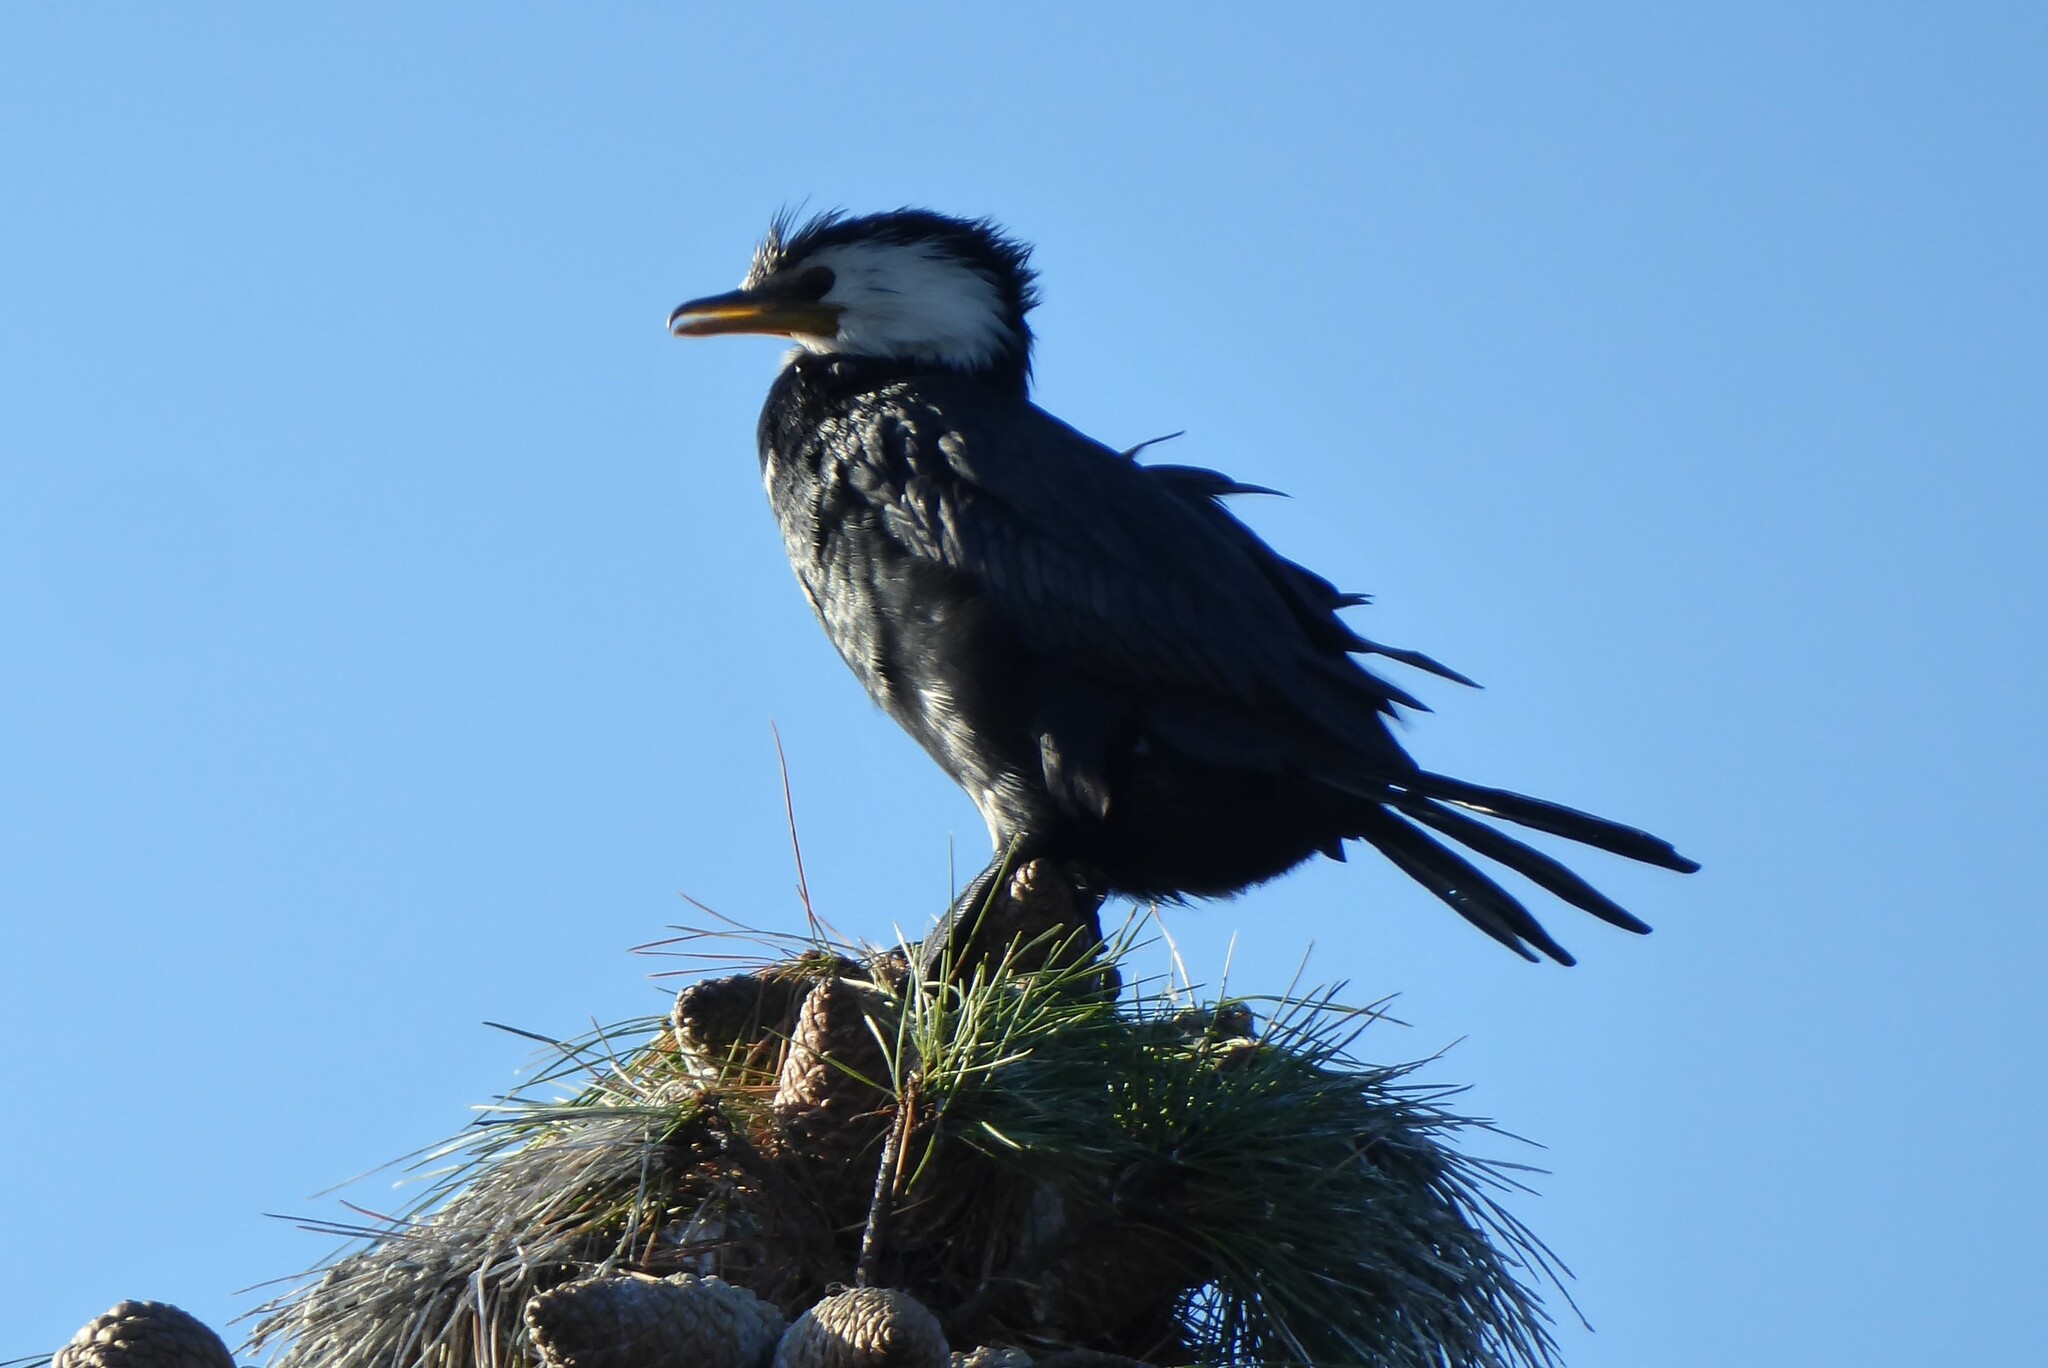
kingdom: Animalia
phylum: Chordata
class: Aves
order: Suliformes
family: Phalacrocoracidae
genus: Microcarbo
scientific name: Microcarbo melanoleucos
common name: Little pied cormorant
